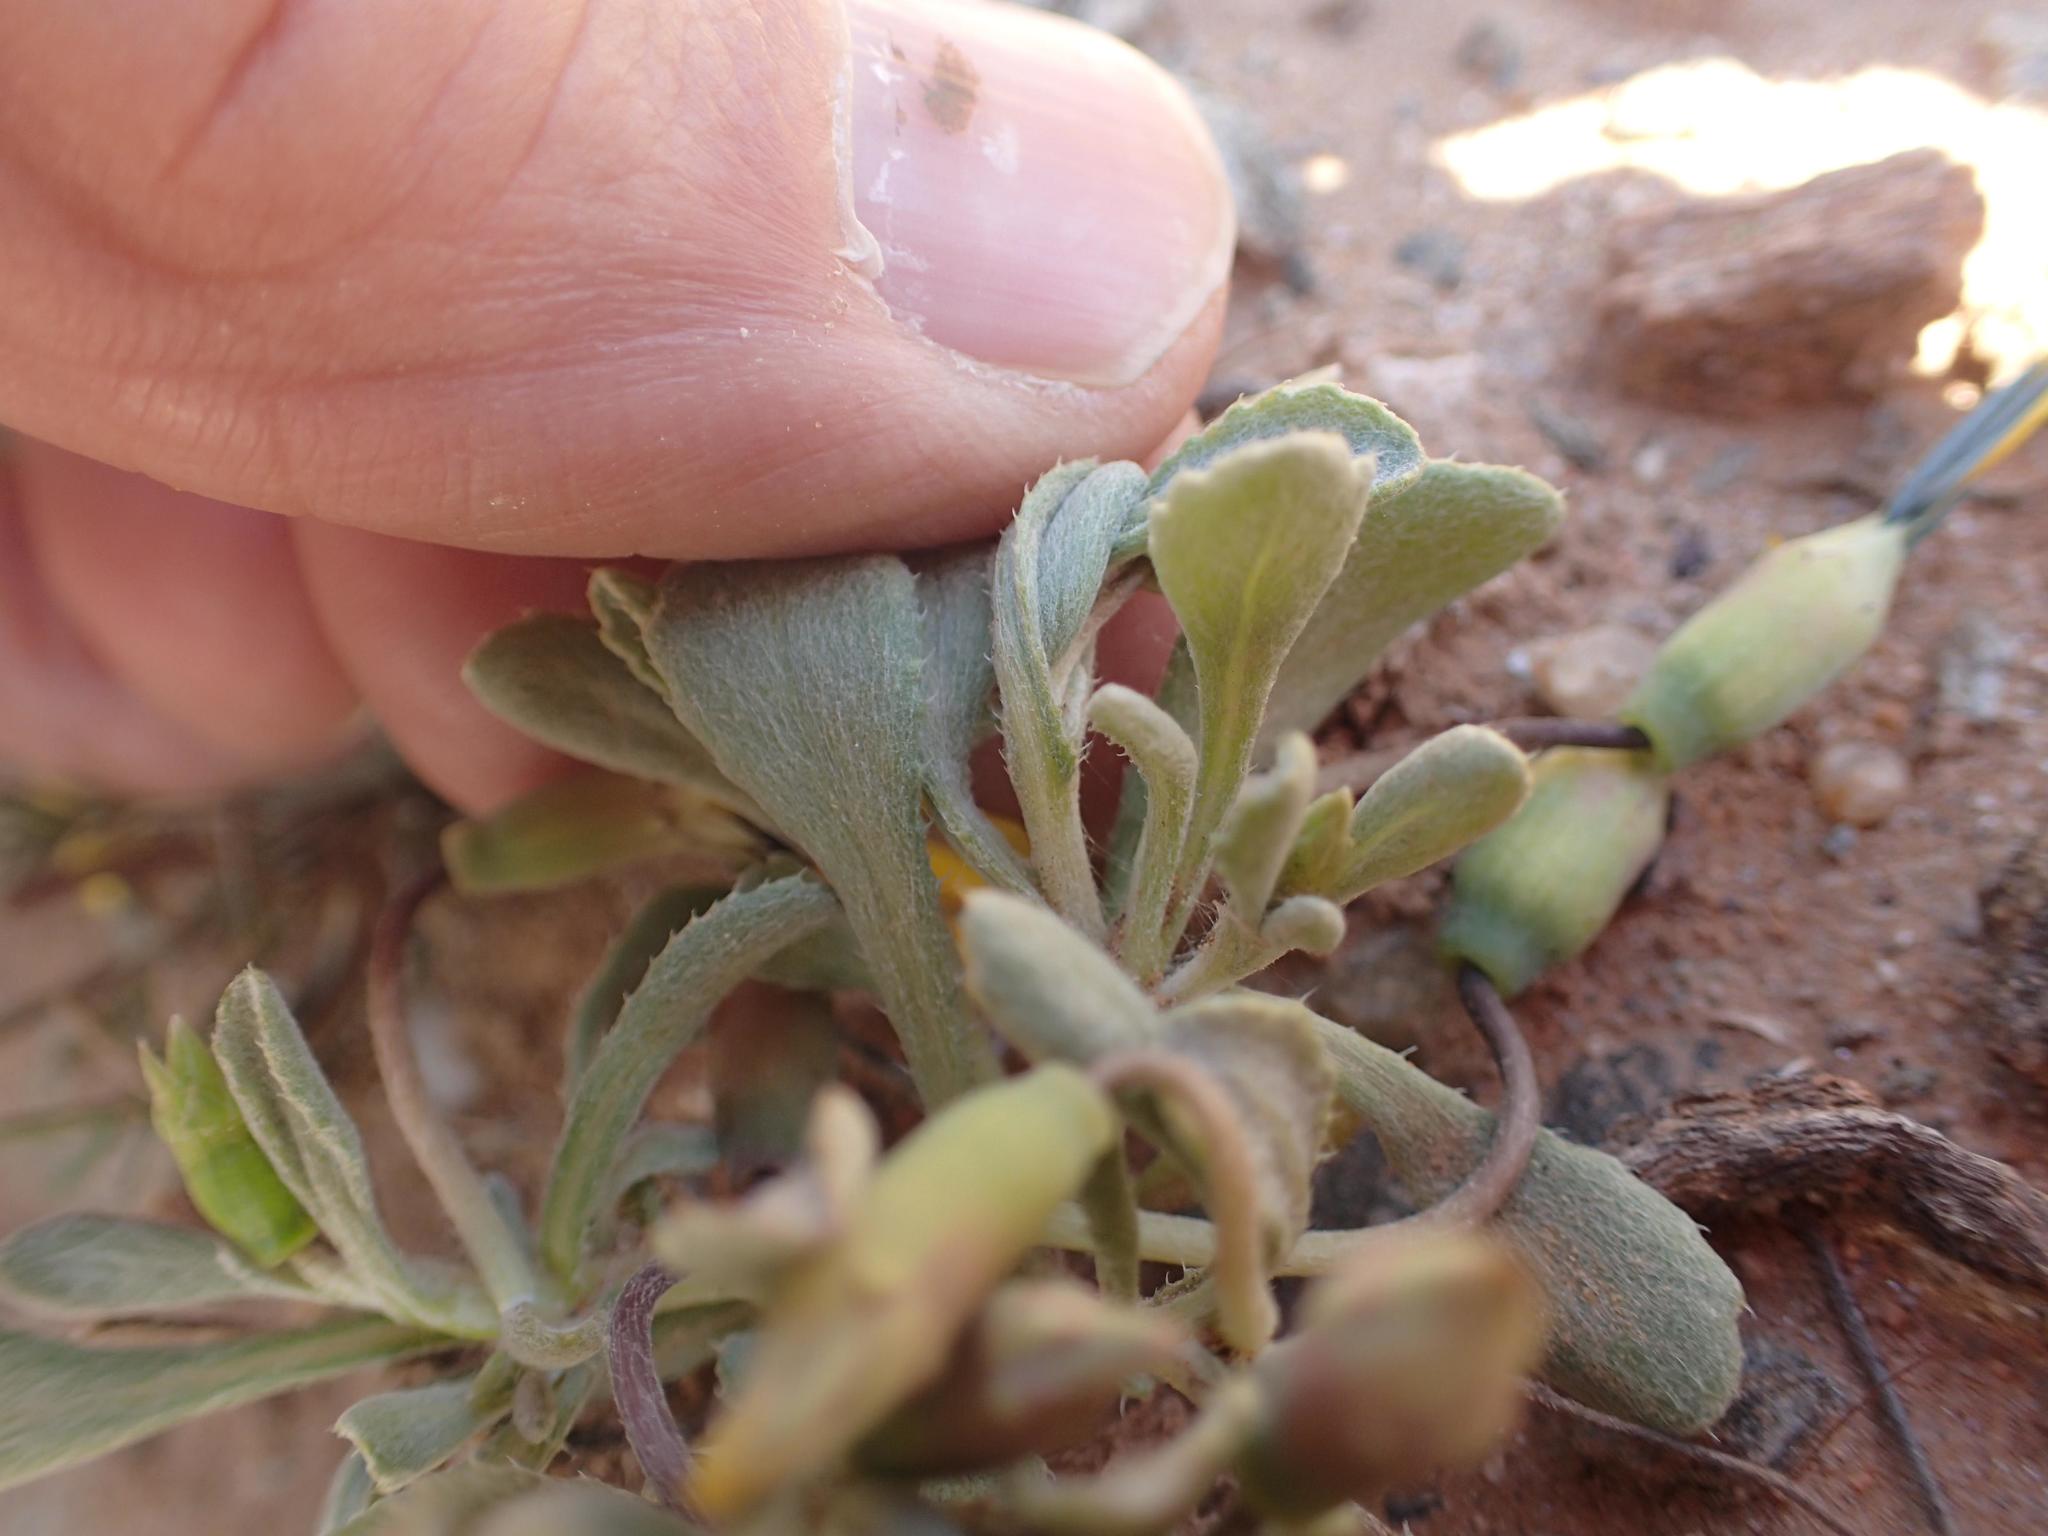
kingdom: Plantae
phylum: Tracheophyta
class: Magnoliopsida
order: Asterales
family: Asteraceae
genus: Gazania
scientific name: Gazania lichtensteinii
